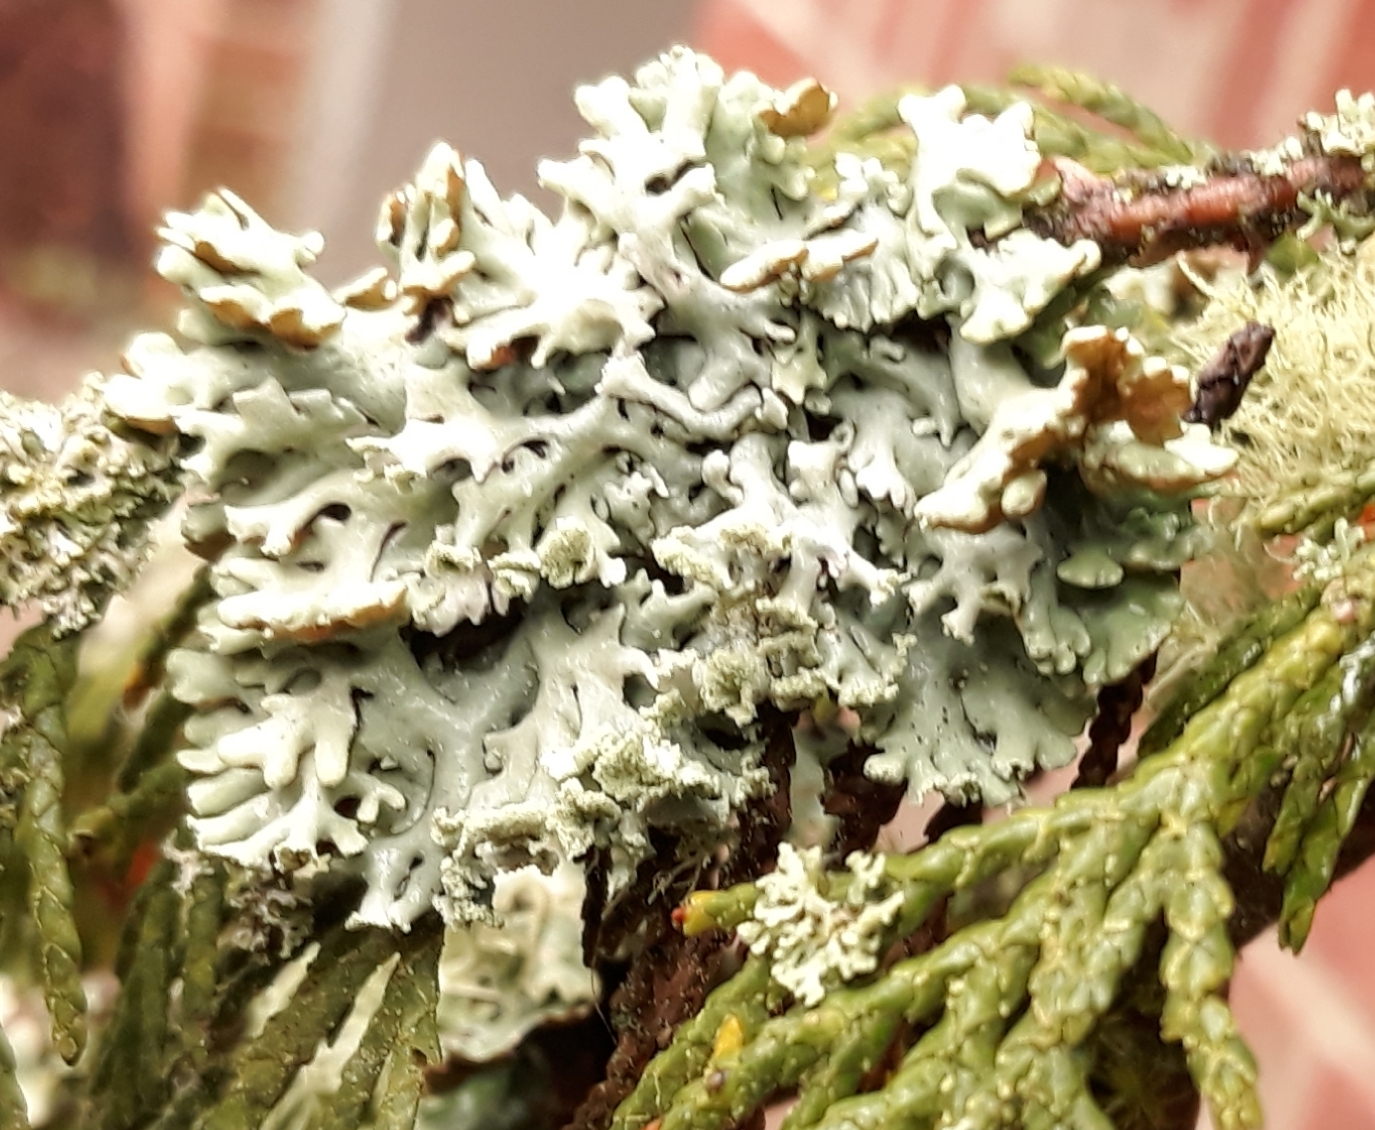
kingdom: Fungi
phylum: Ascomycota
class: Lecanoromycetes
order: Lecanorales
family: Parmeliaceae
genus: Hypogymnia
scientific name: Hypogymnia physodes
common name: Dark crottle
